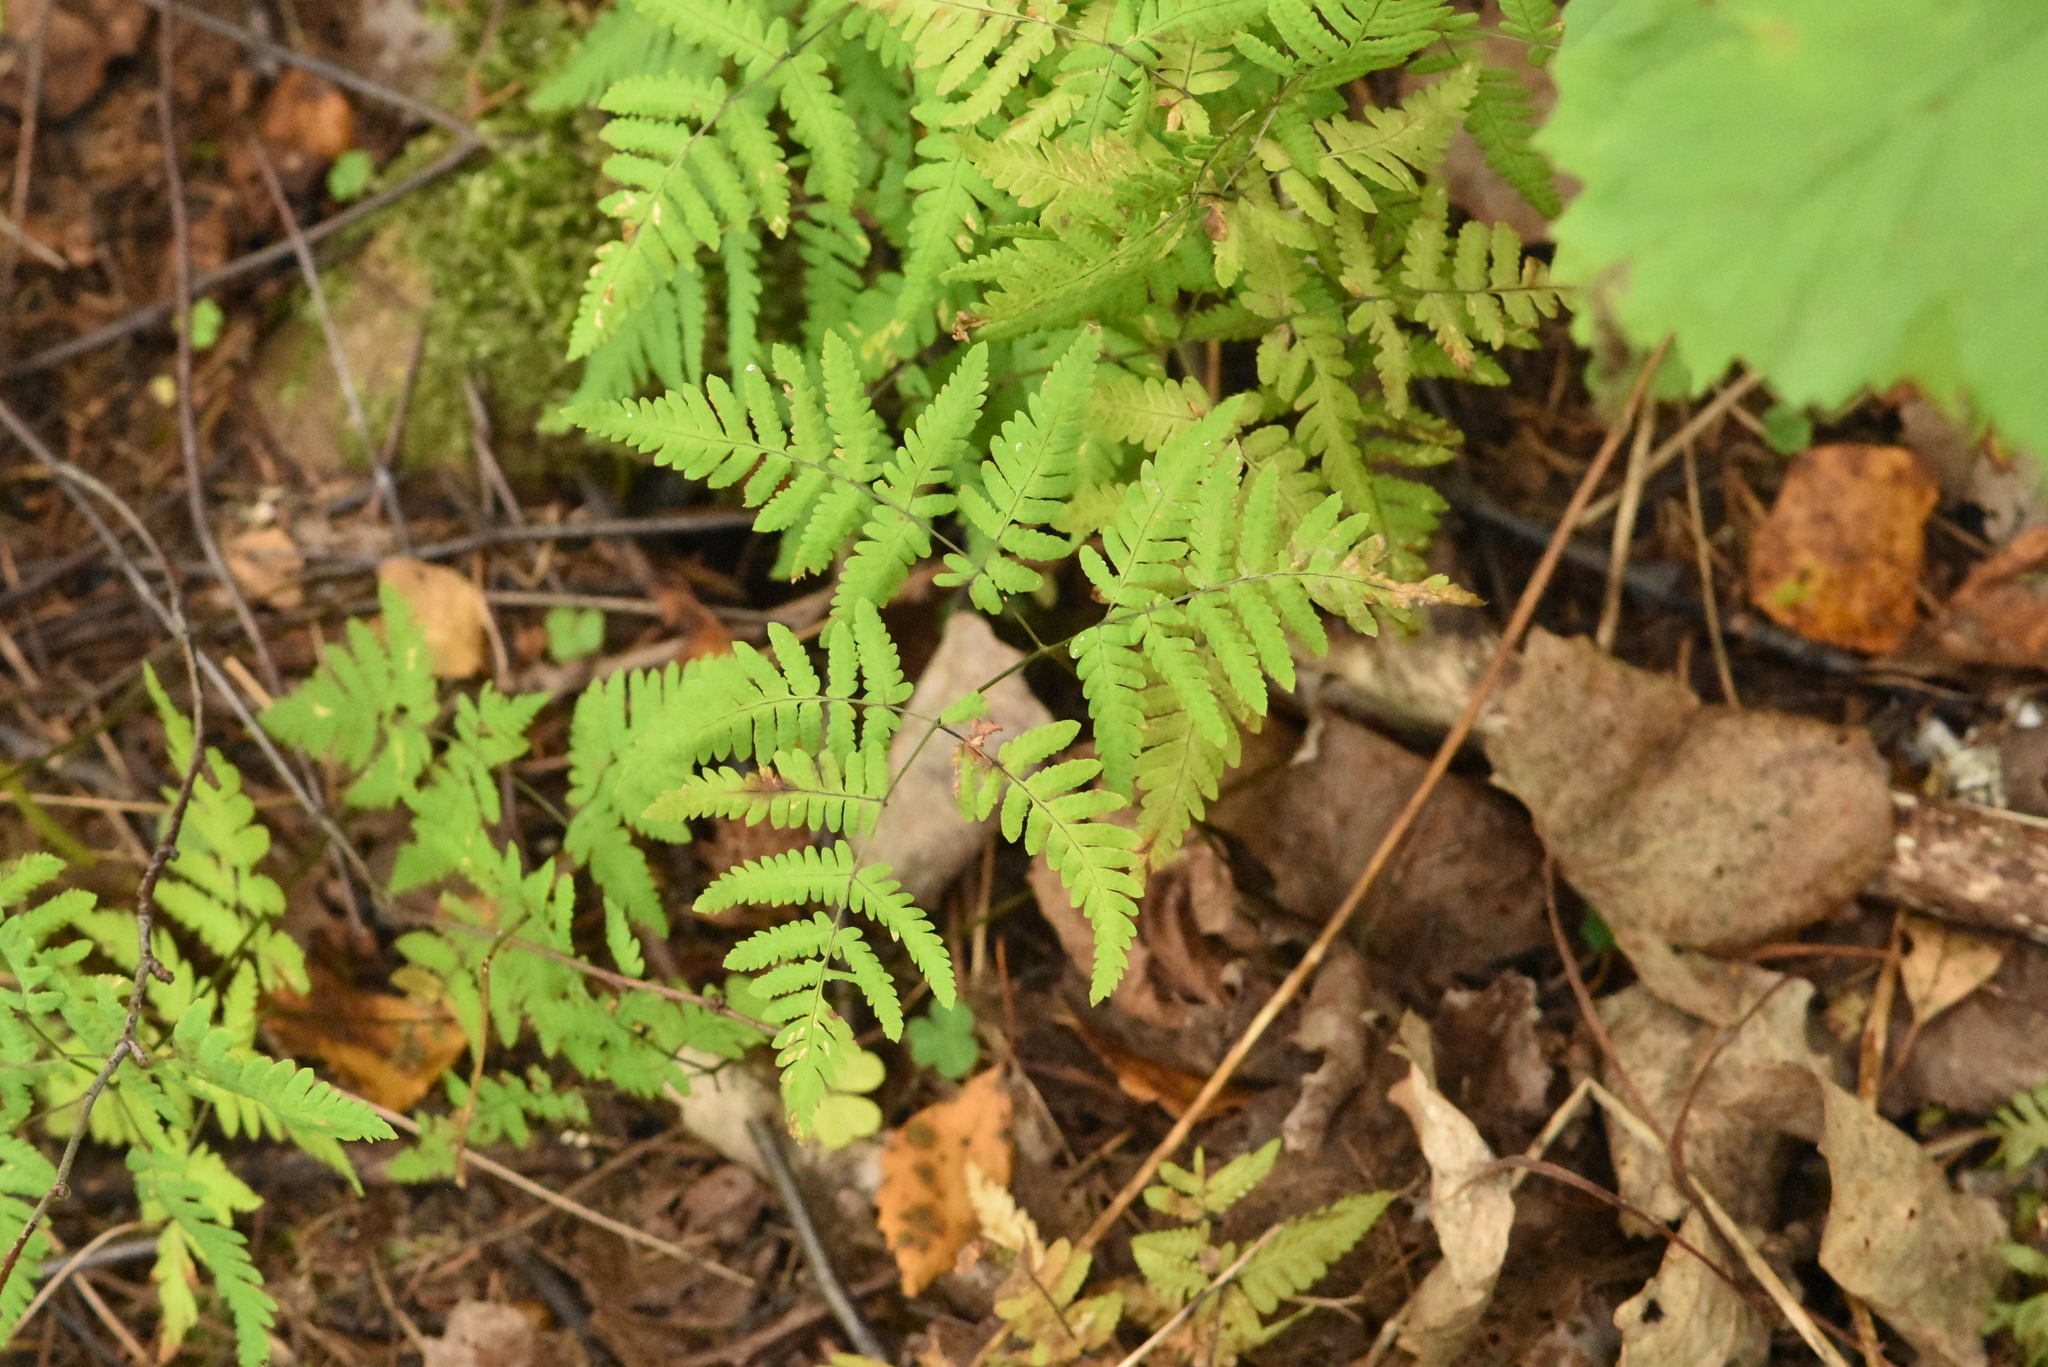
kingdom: Plantae
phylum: Tracheophyta
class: Polypodiopsida
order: Polypodiales
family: Cystopteridaceae
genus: Gymnocarpium
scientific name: Gymnocarpium dryopteris
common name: Oak fern
